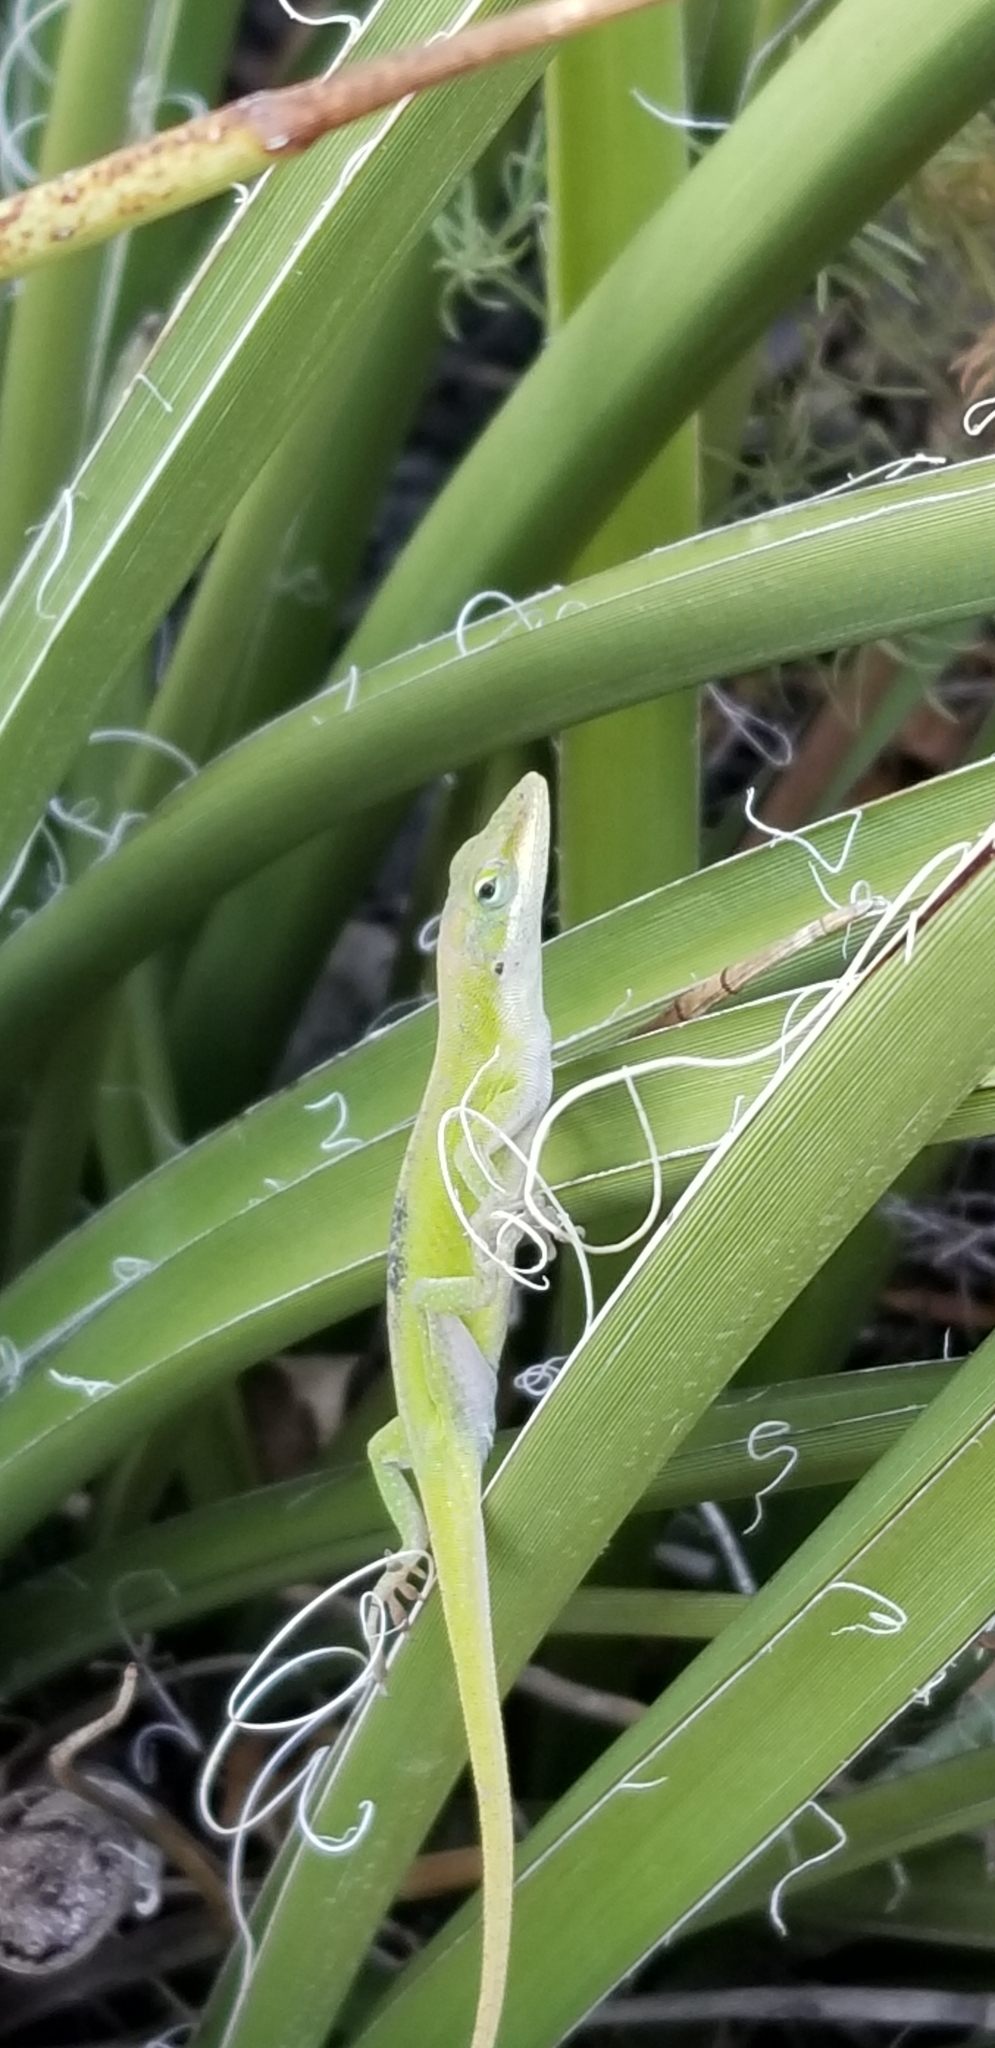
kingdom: Animalia
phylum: Chordata
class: Squamata
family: Dactyloidae
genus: Anolis
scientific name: Anolis carolinensis
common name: Green anole
